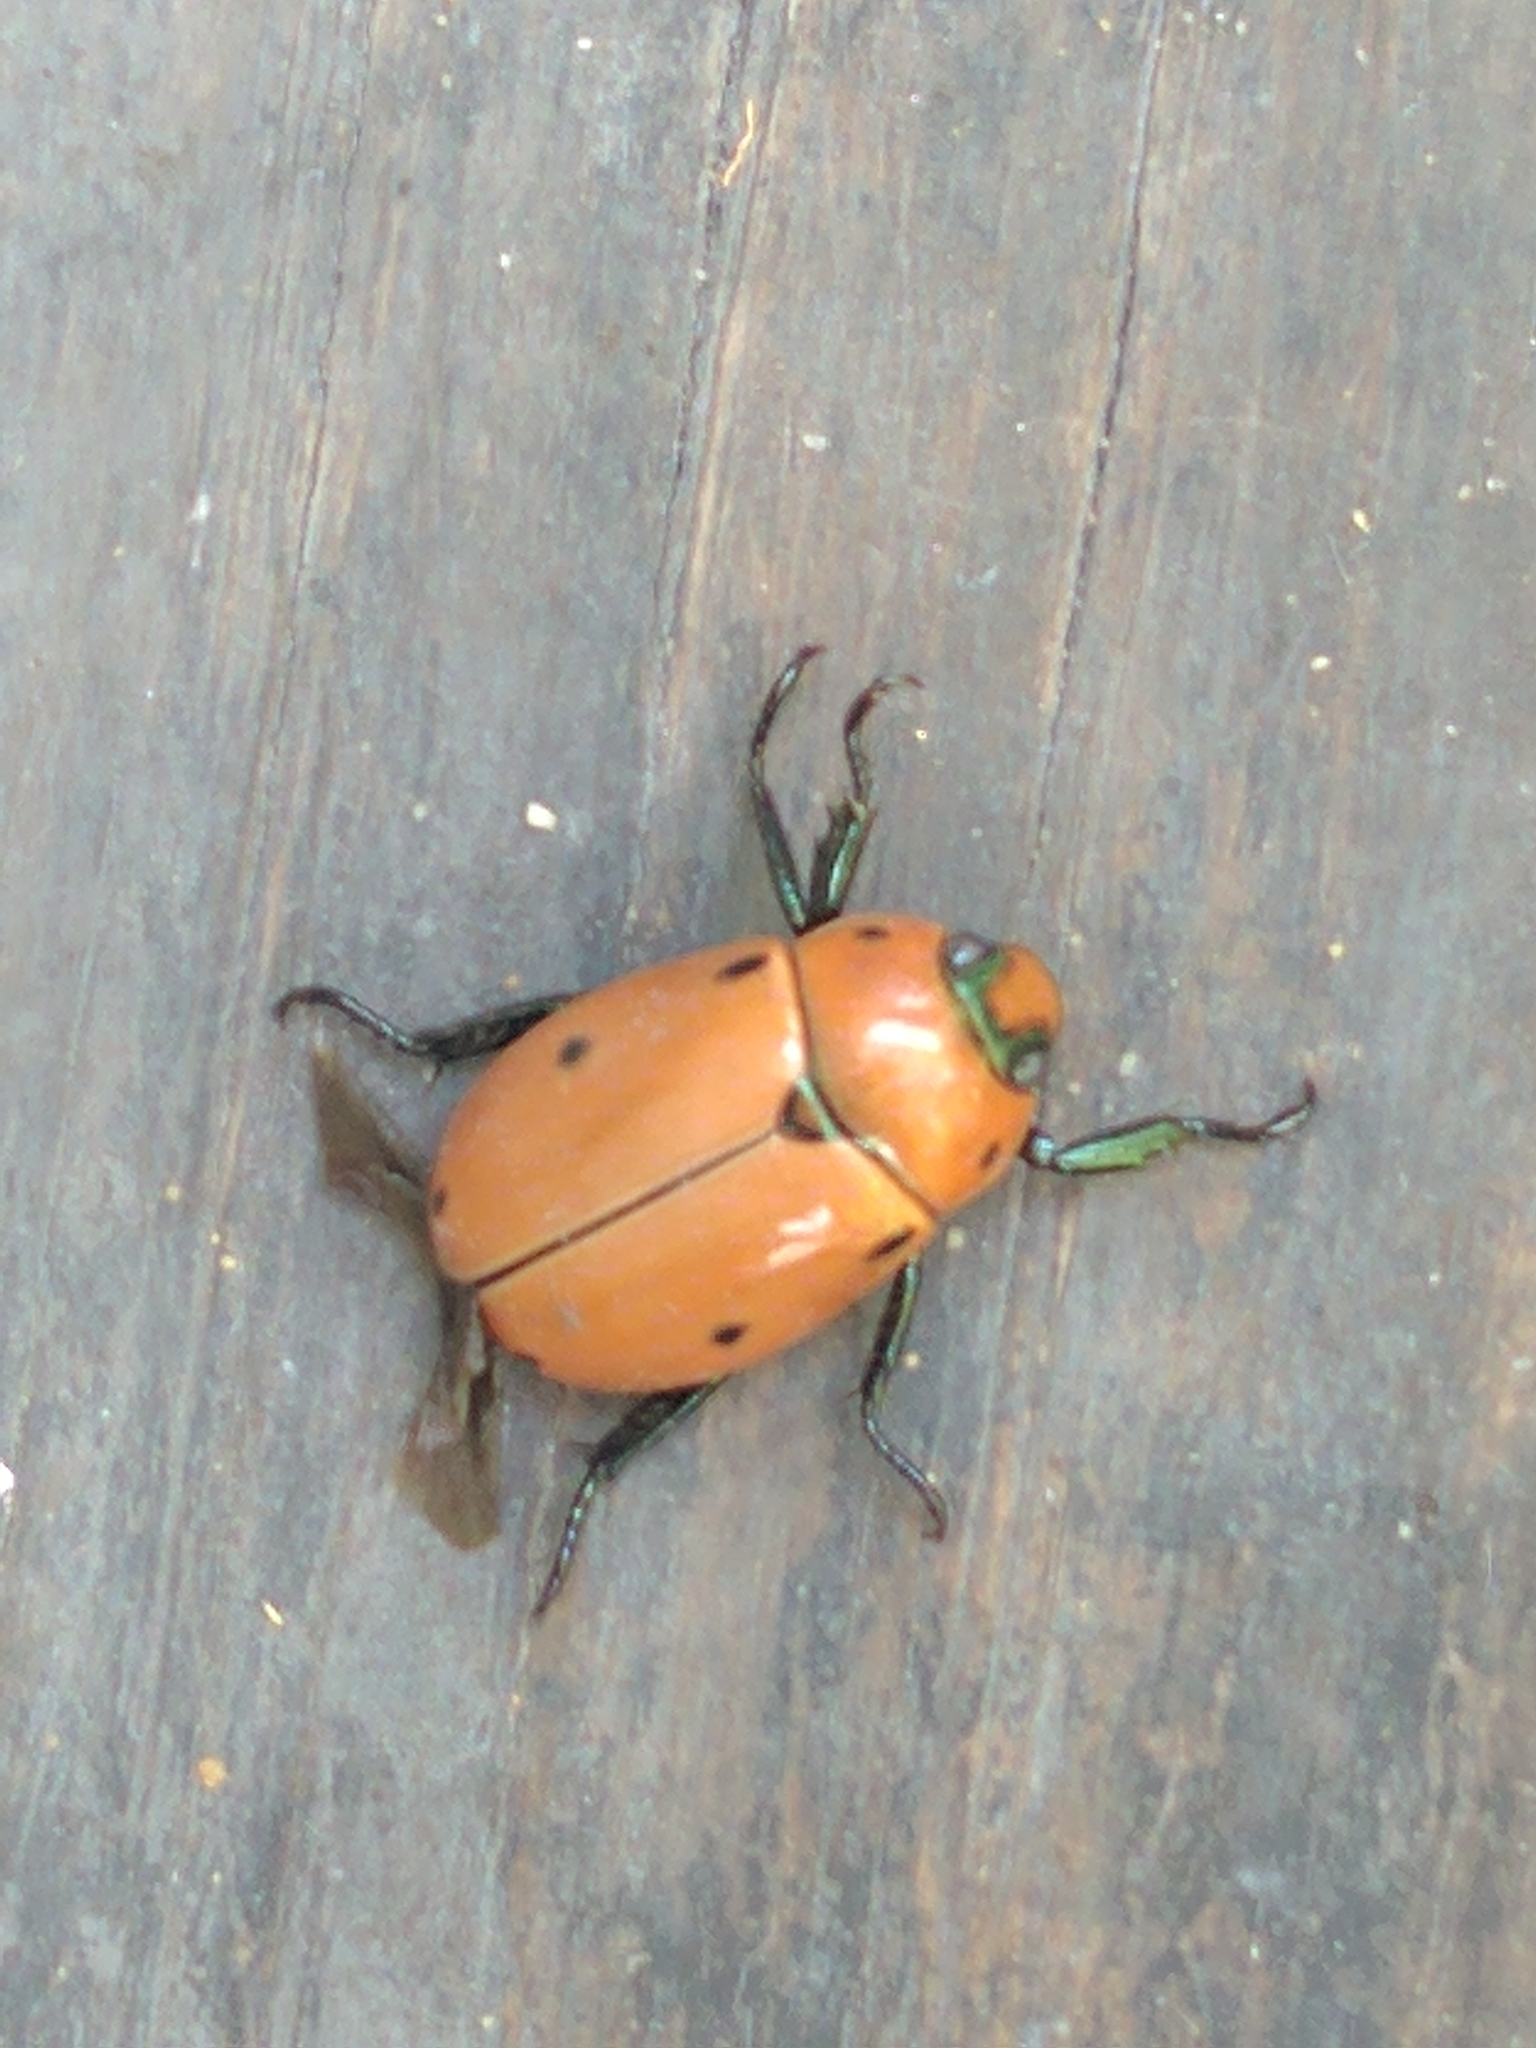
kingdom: Animalia
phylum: Arthropoda
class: Insecta
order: Coleoptera
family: Scarabaeidae
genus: Pelidnota
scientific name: Pelidnota punctata
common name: Grapevine beetle
